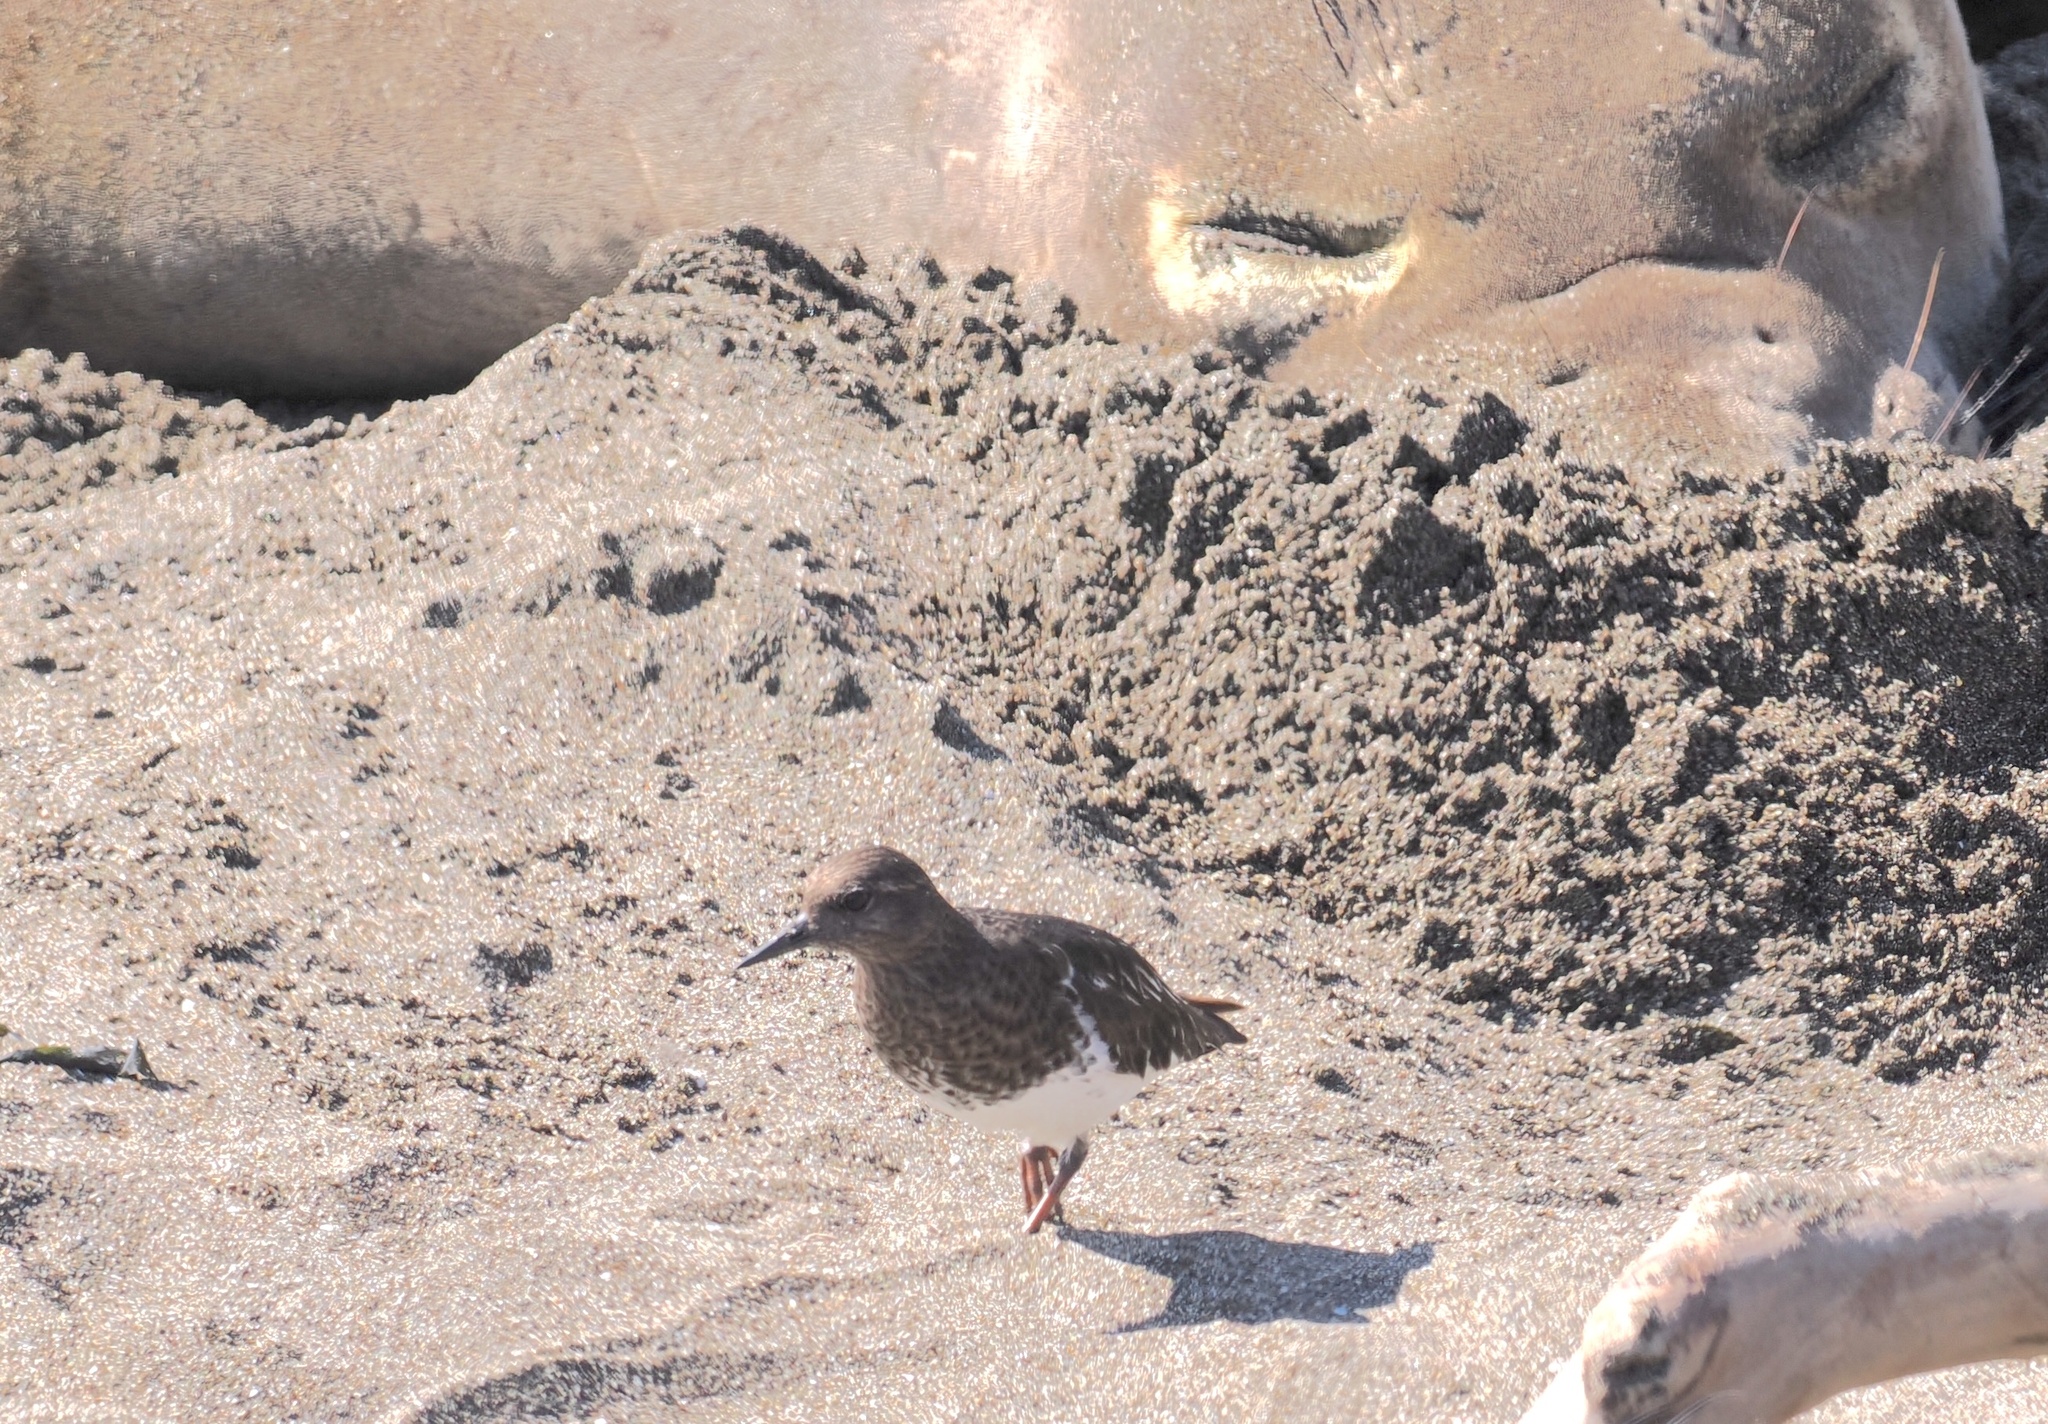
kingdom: Animalia
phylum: Chordata
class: Aves
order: Charadriiformes
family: Scolopacidae
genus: Arenaria
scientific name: Arenaria melanocephala
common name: Black turnstone
